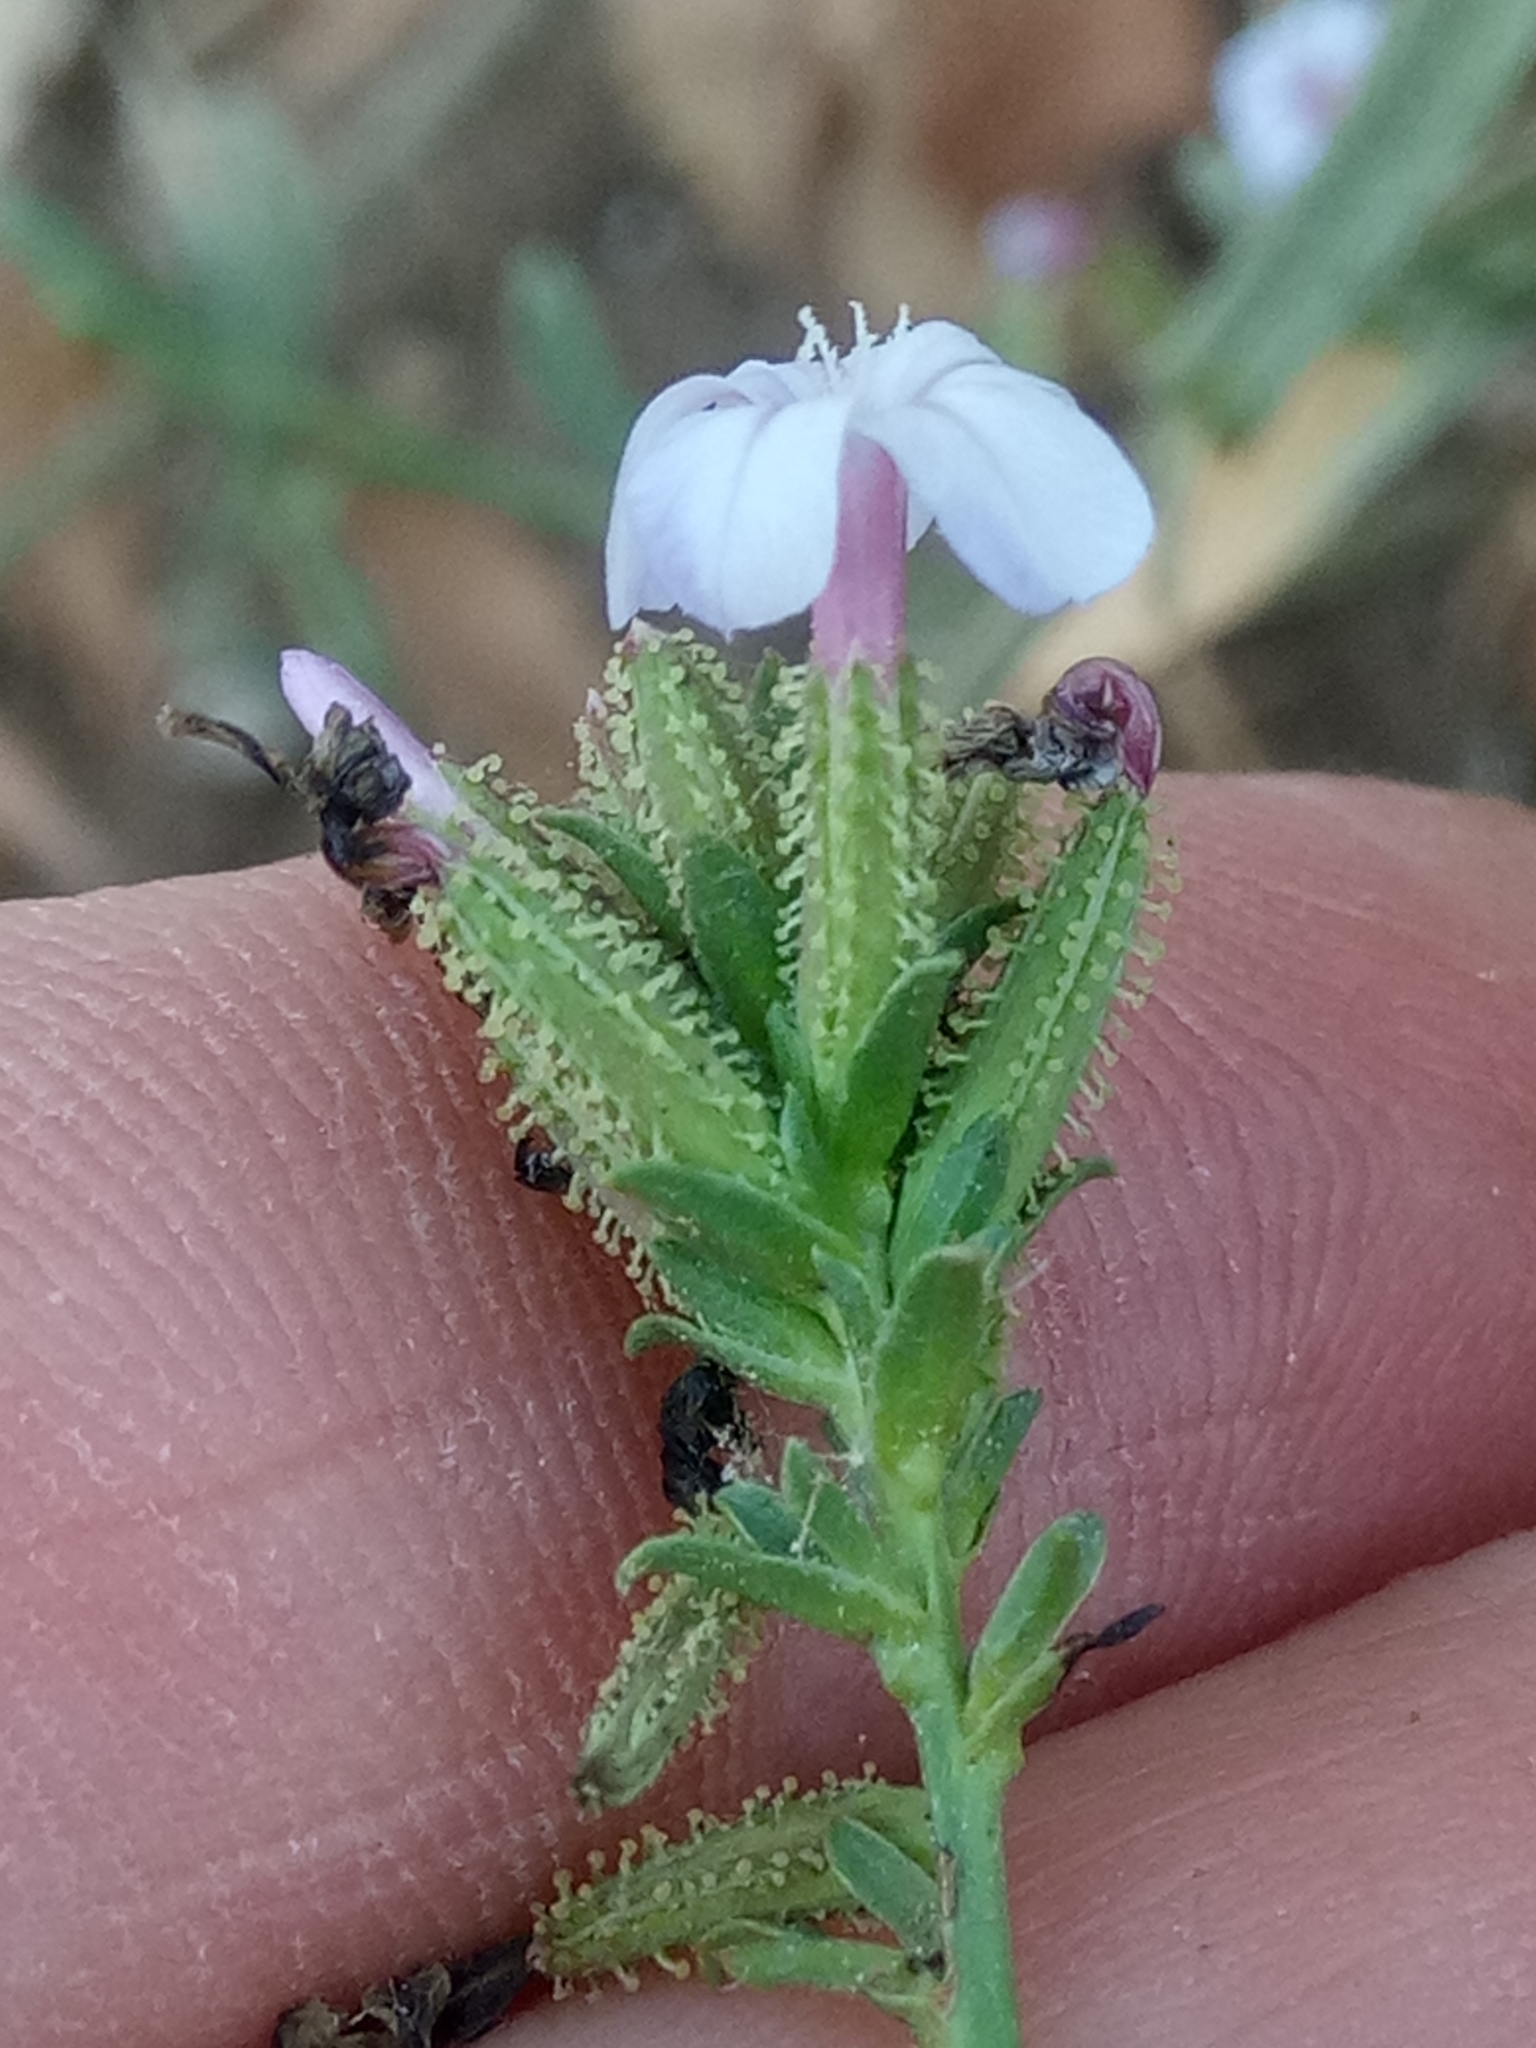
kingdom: Plantae
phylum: Tracheophyta
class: Magnoliopsida
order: Caryophyllales
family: Plumbaginaceae
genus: Plumbago
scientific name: Plumbago europaea
